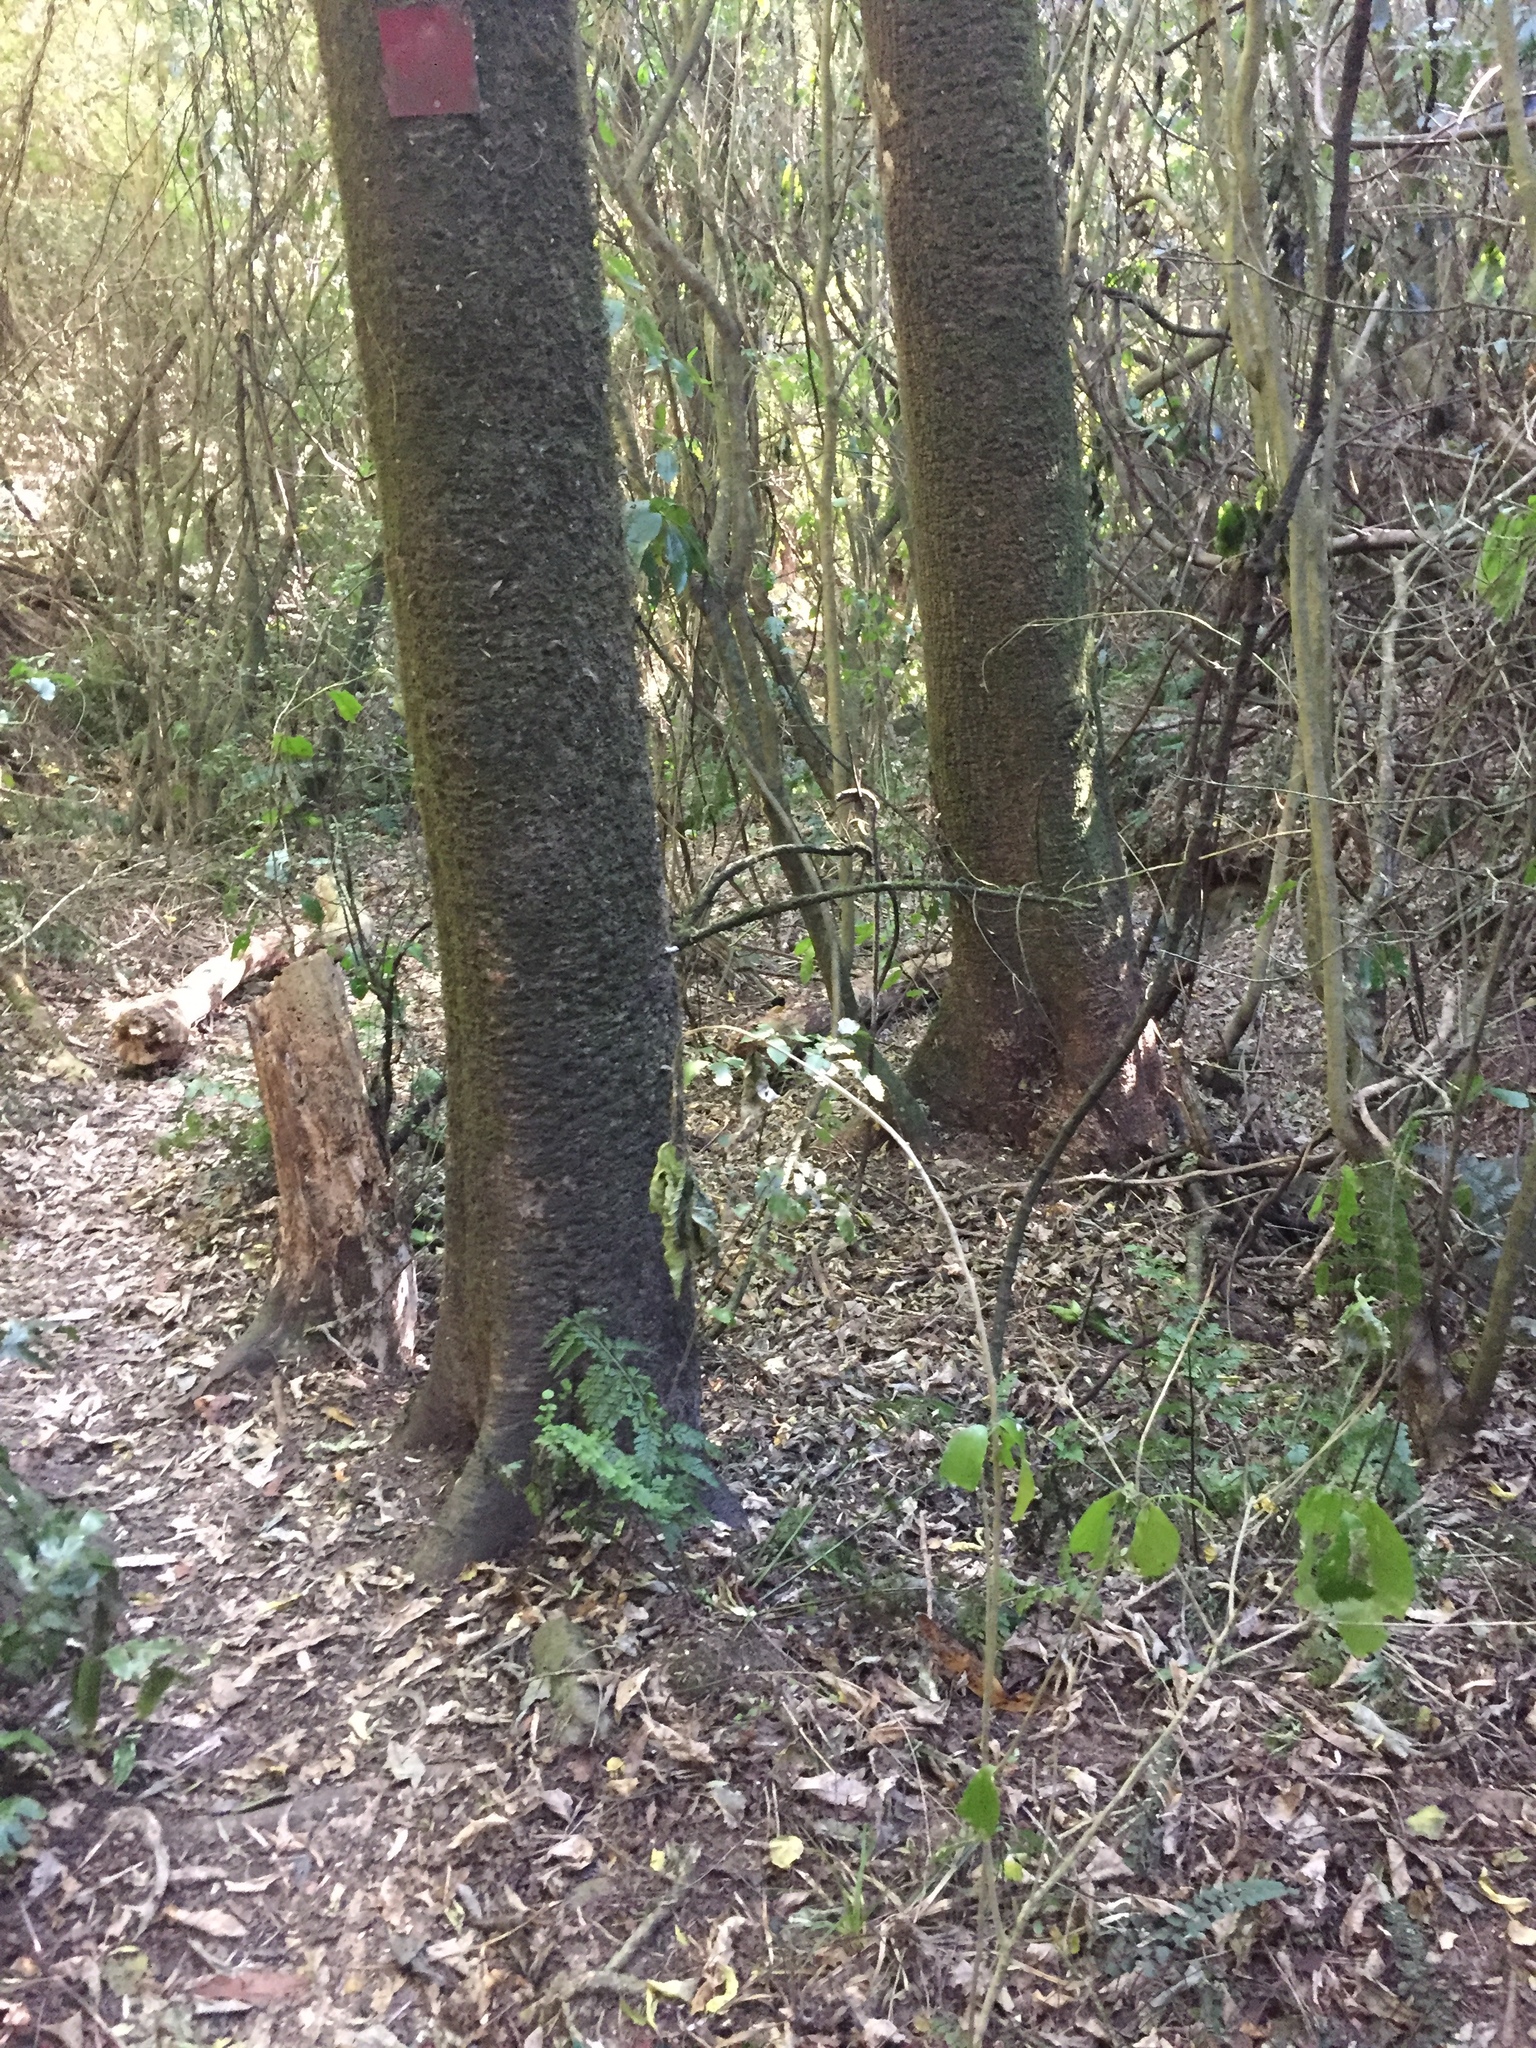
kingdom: Animalia
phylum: Chordata
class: Aves
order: Passeriformes
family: Petroicidae
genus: Petroica
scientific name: Petroica macrocephala
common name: Tomtit
